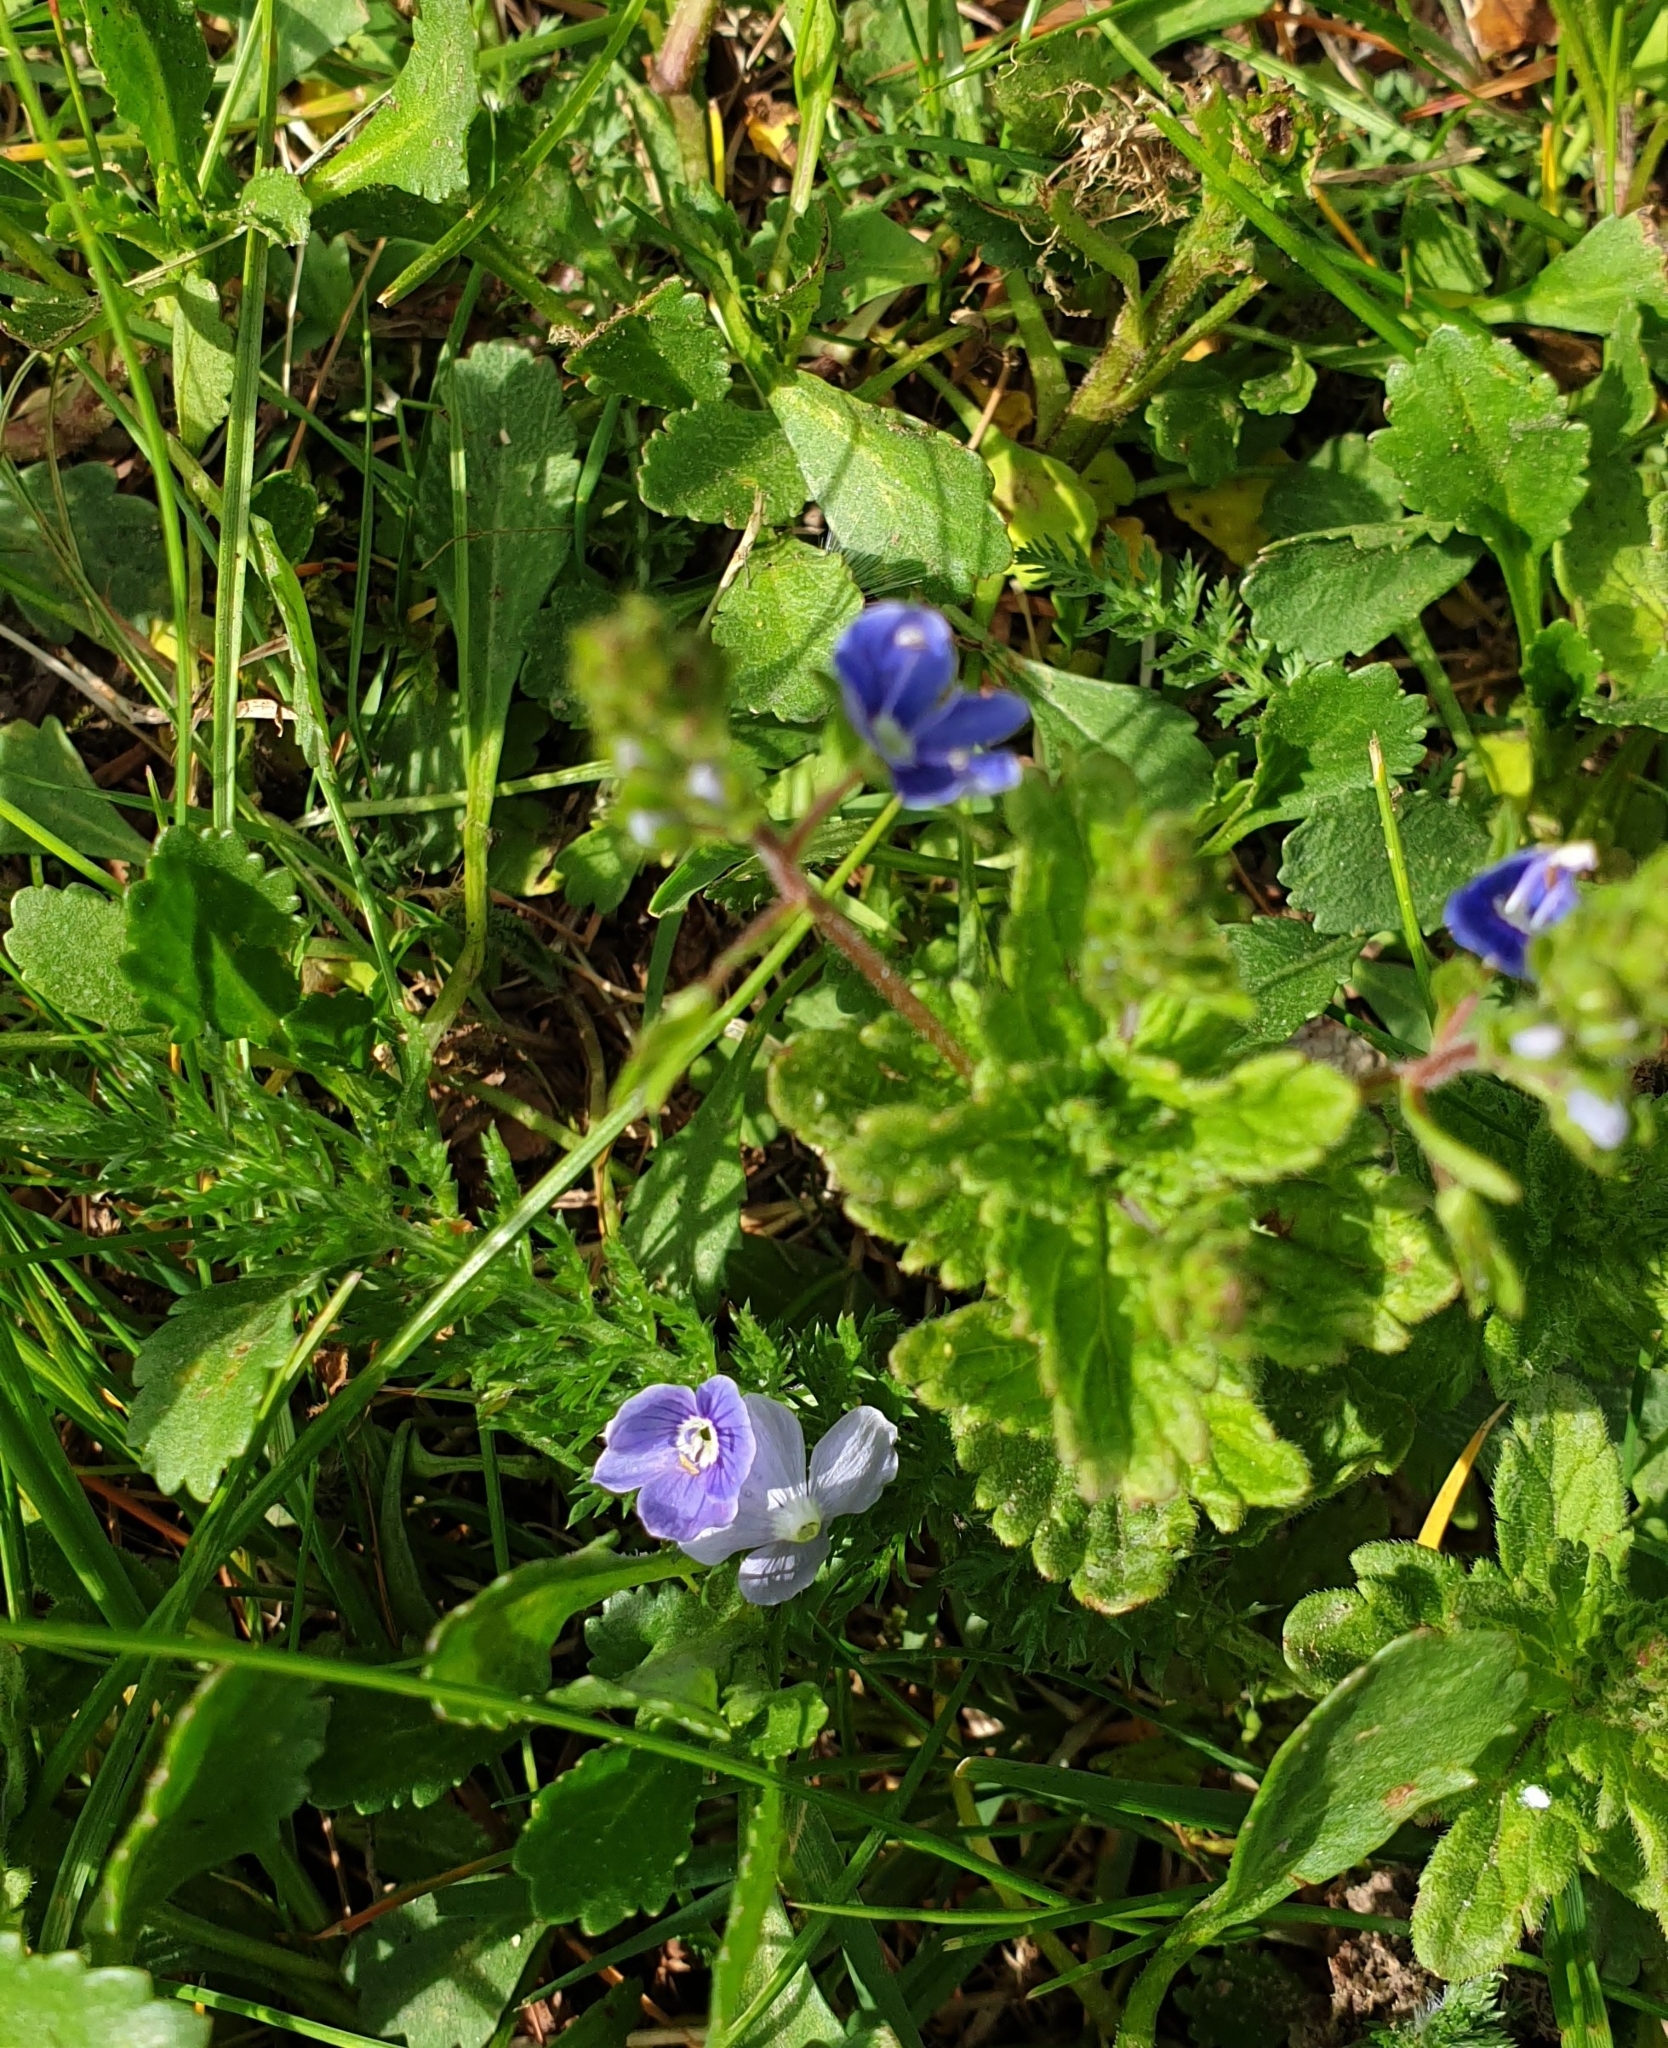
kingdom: Plantae
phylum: Tracheophyta
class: Magnoliopsida
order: Lamiales
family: Plantaginaceae
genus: Veronica
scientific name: Veronica chamaedrys
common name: Germander speedwell
